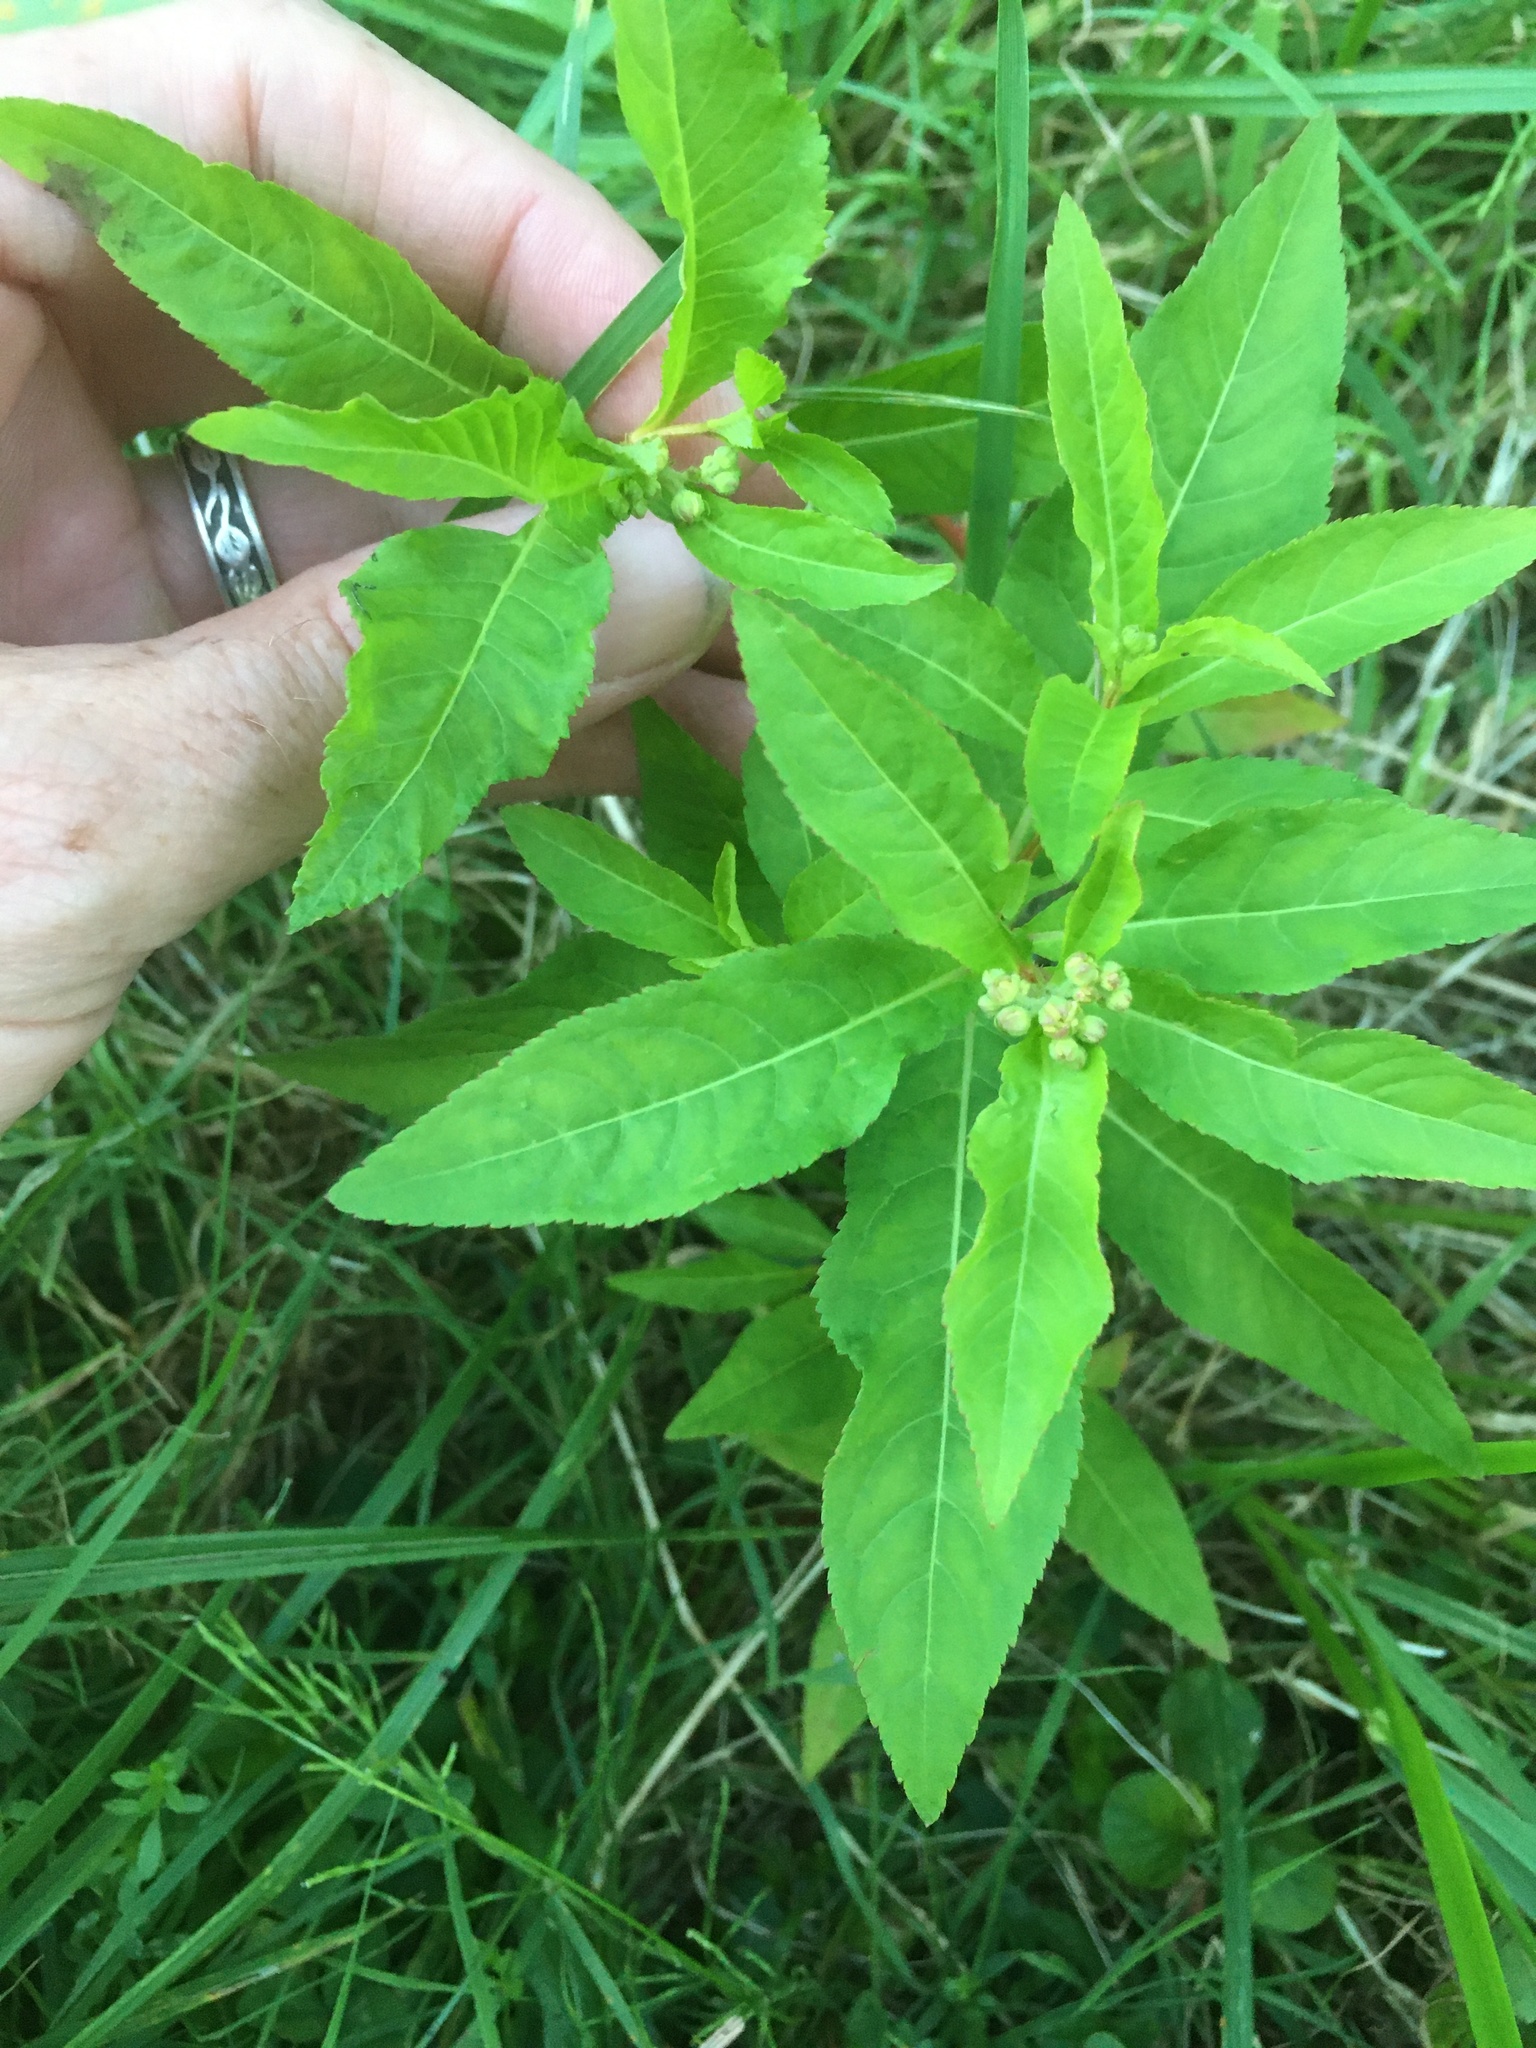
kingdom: Plantae
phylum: Tracheophyta
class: Magnoliopsida
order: Saxifragales
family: Penthoraceae
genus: Penthorum
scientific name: Penthorum sedoides
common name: Ditch stonecrop
